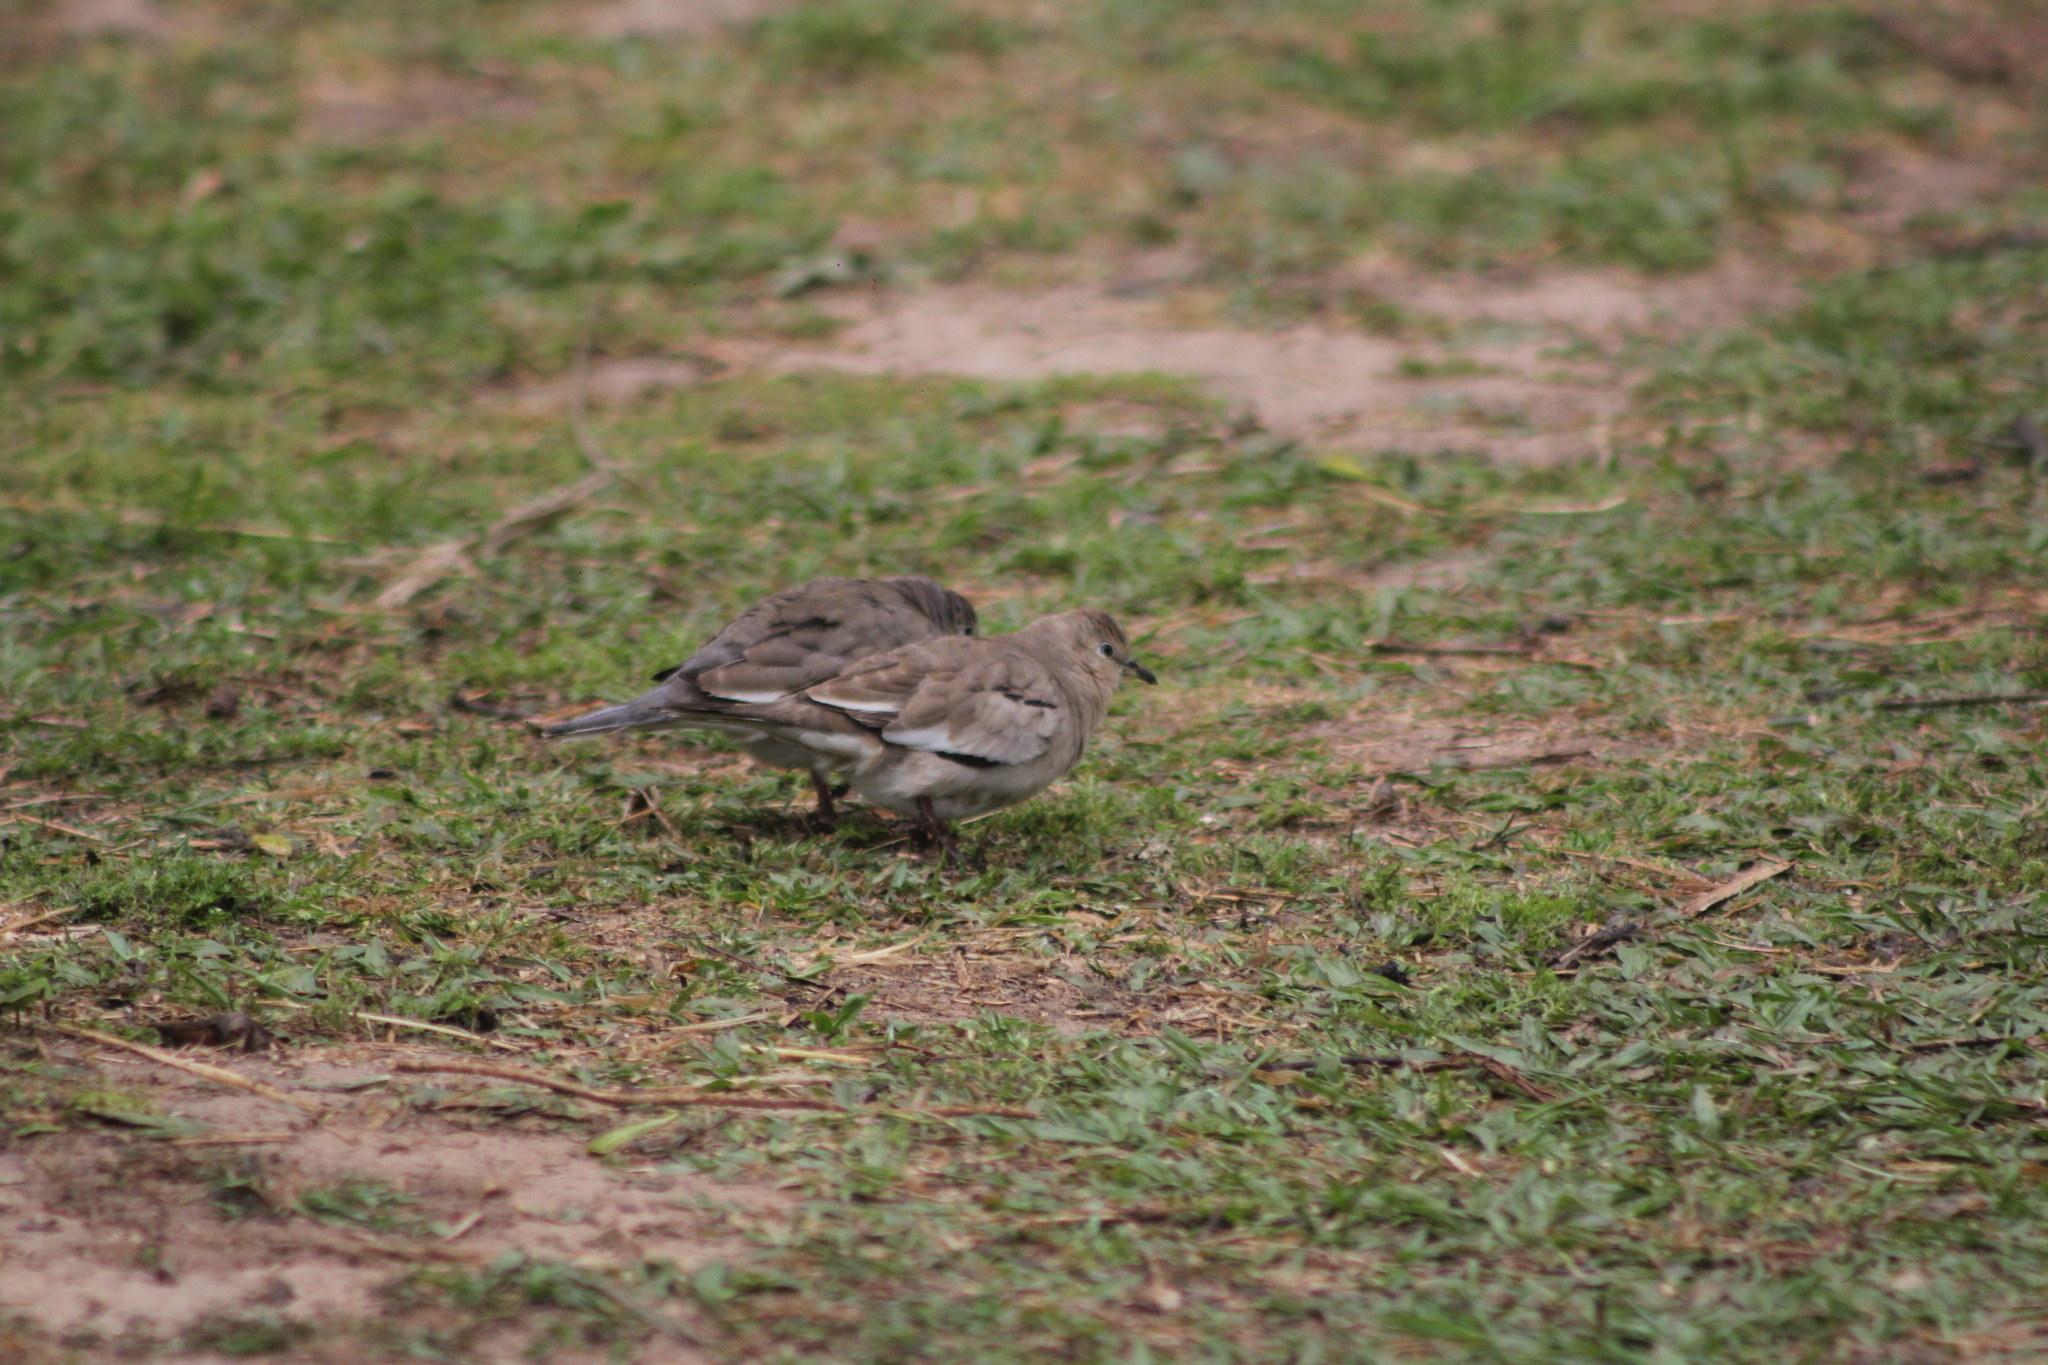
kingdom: Animalia
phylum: Chordata
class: Aves
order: Columbiformes
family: Columbidae
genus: Columbina
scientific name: Columbina picui
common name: Picui ground dove
